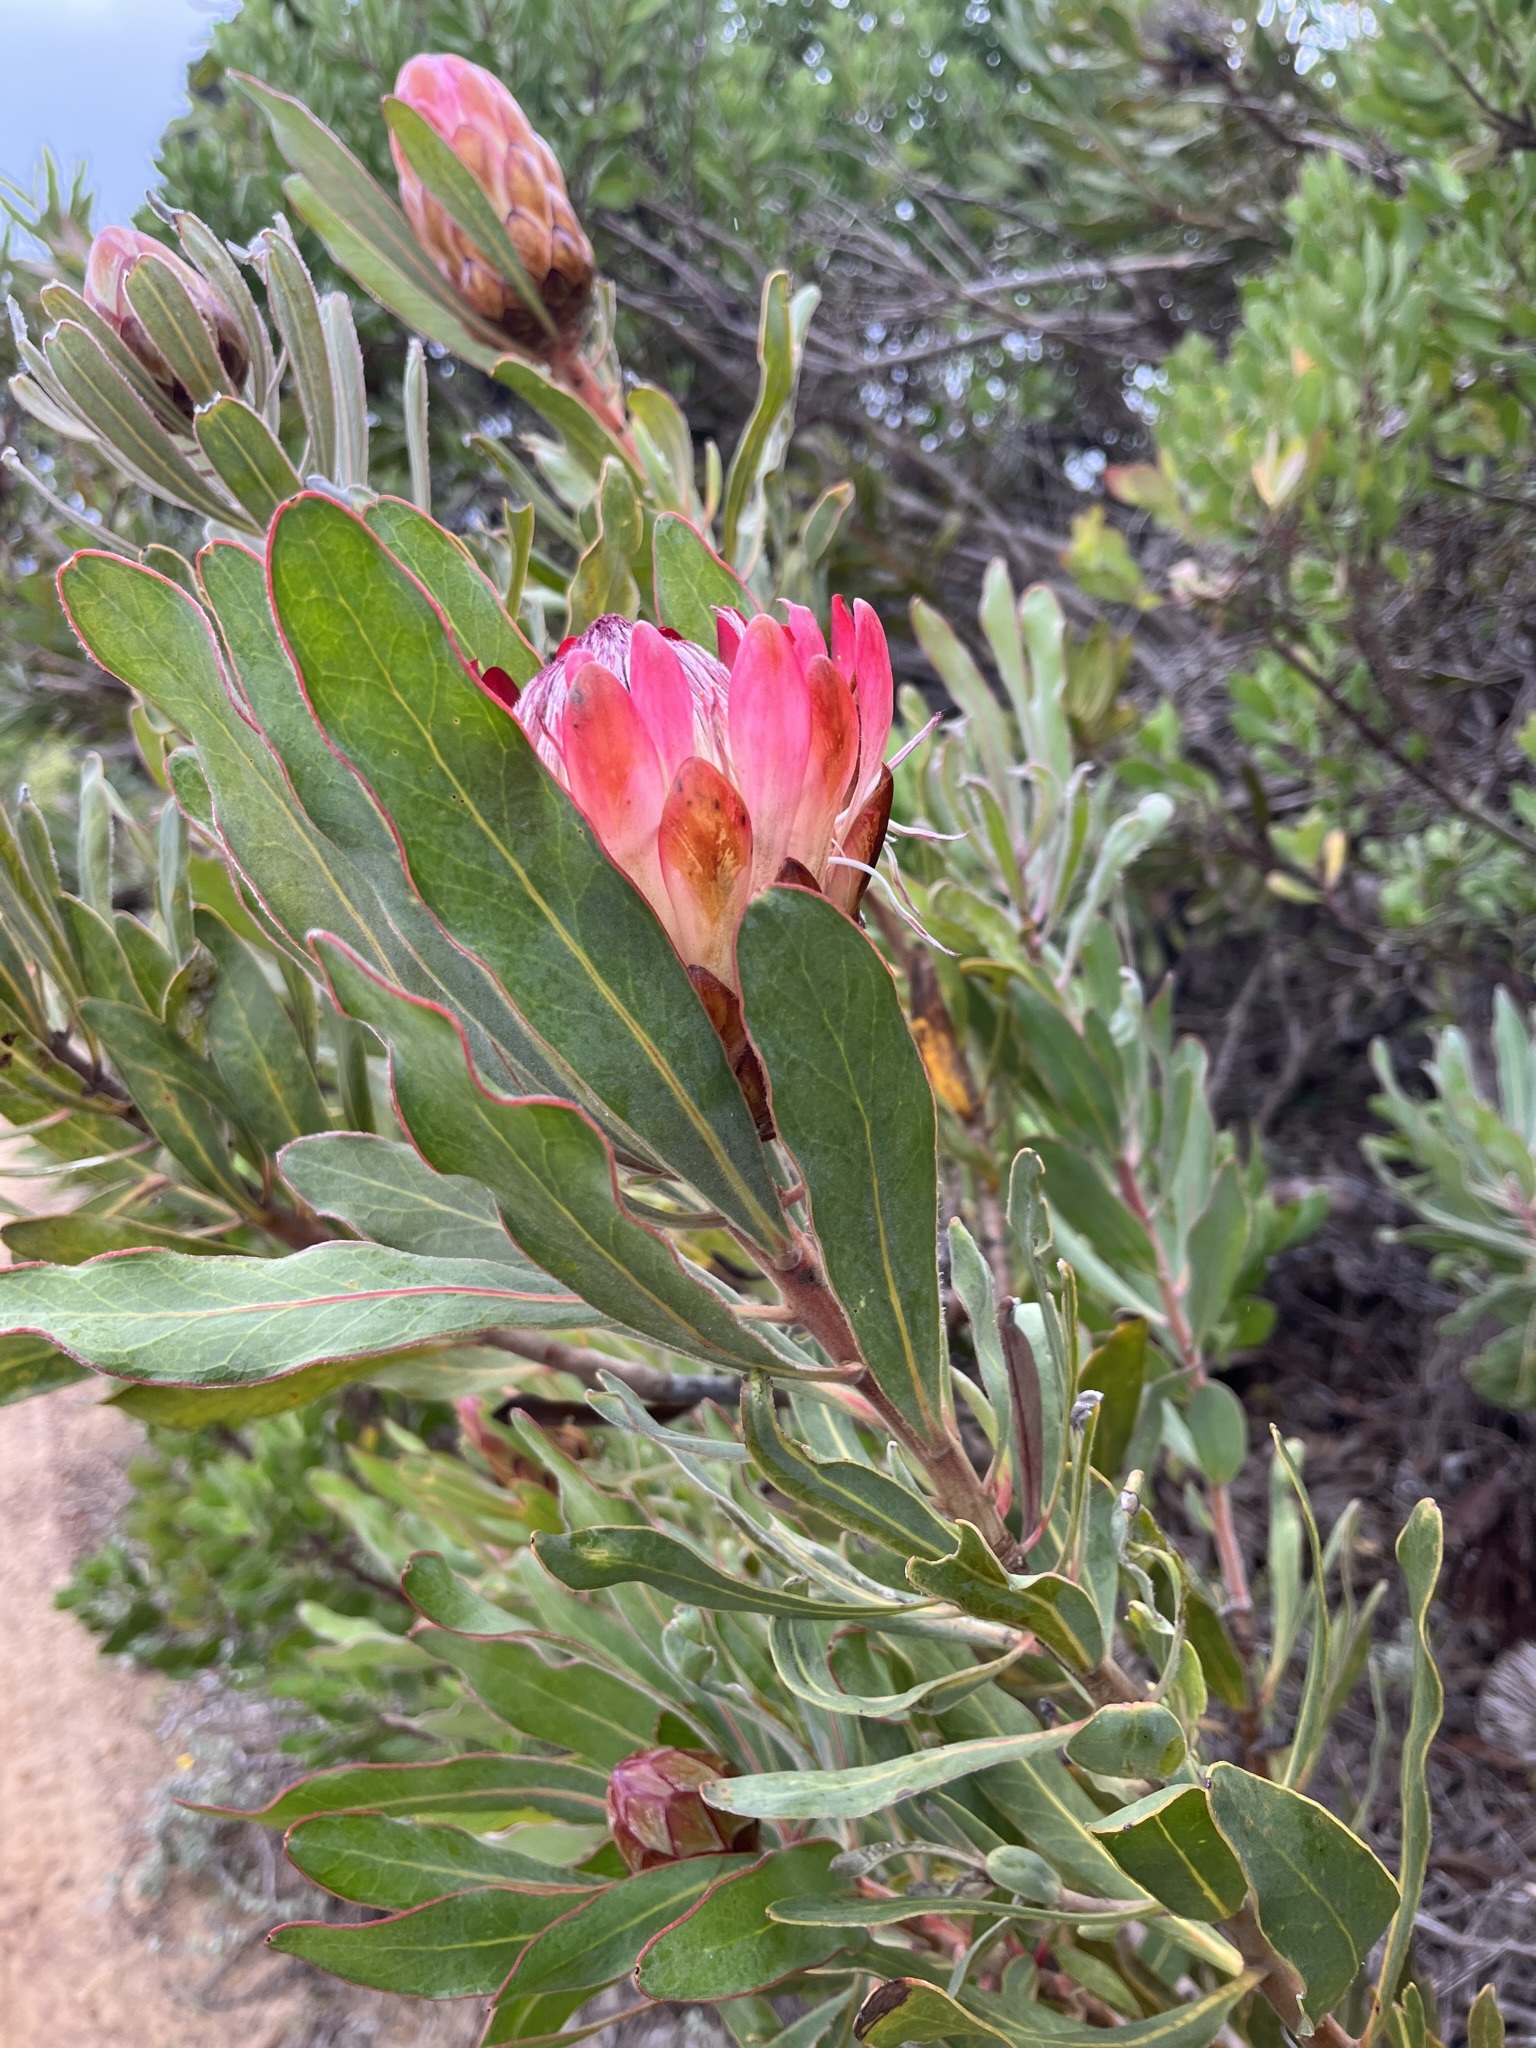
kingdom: Plantae
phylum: Tracheophyta
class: Magnoliopsida
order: Proteales
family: Proteaceae
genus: Protea
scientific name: Protea susannae
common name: Foetid-leaf sugarbush
